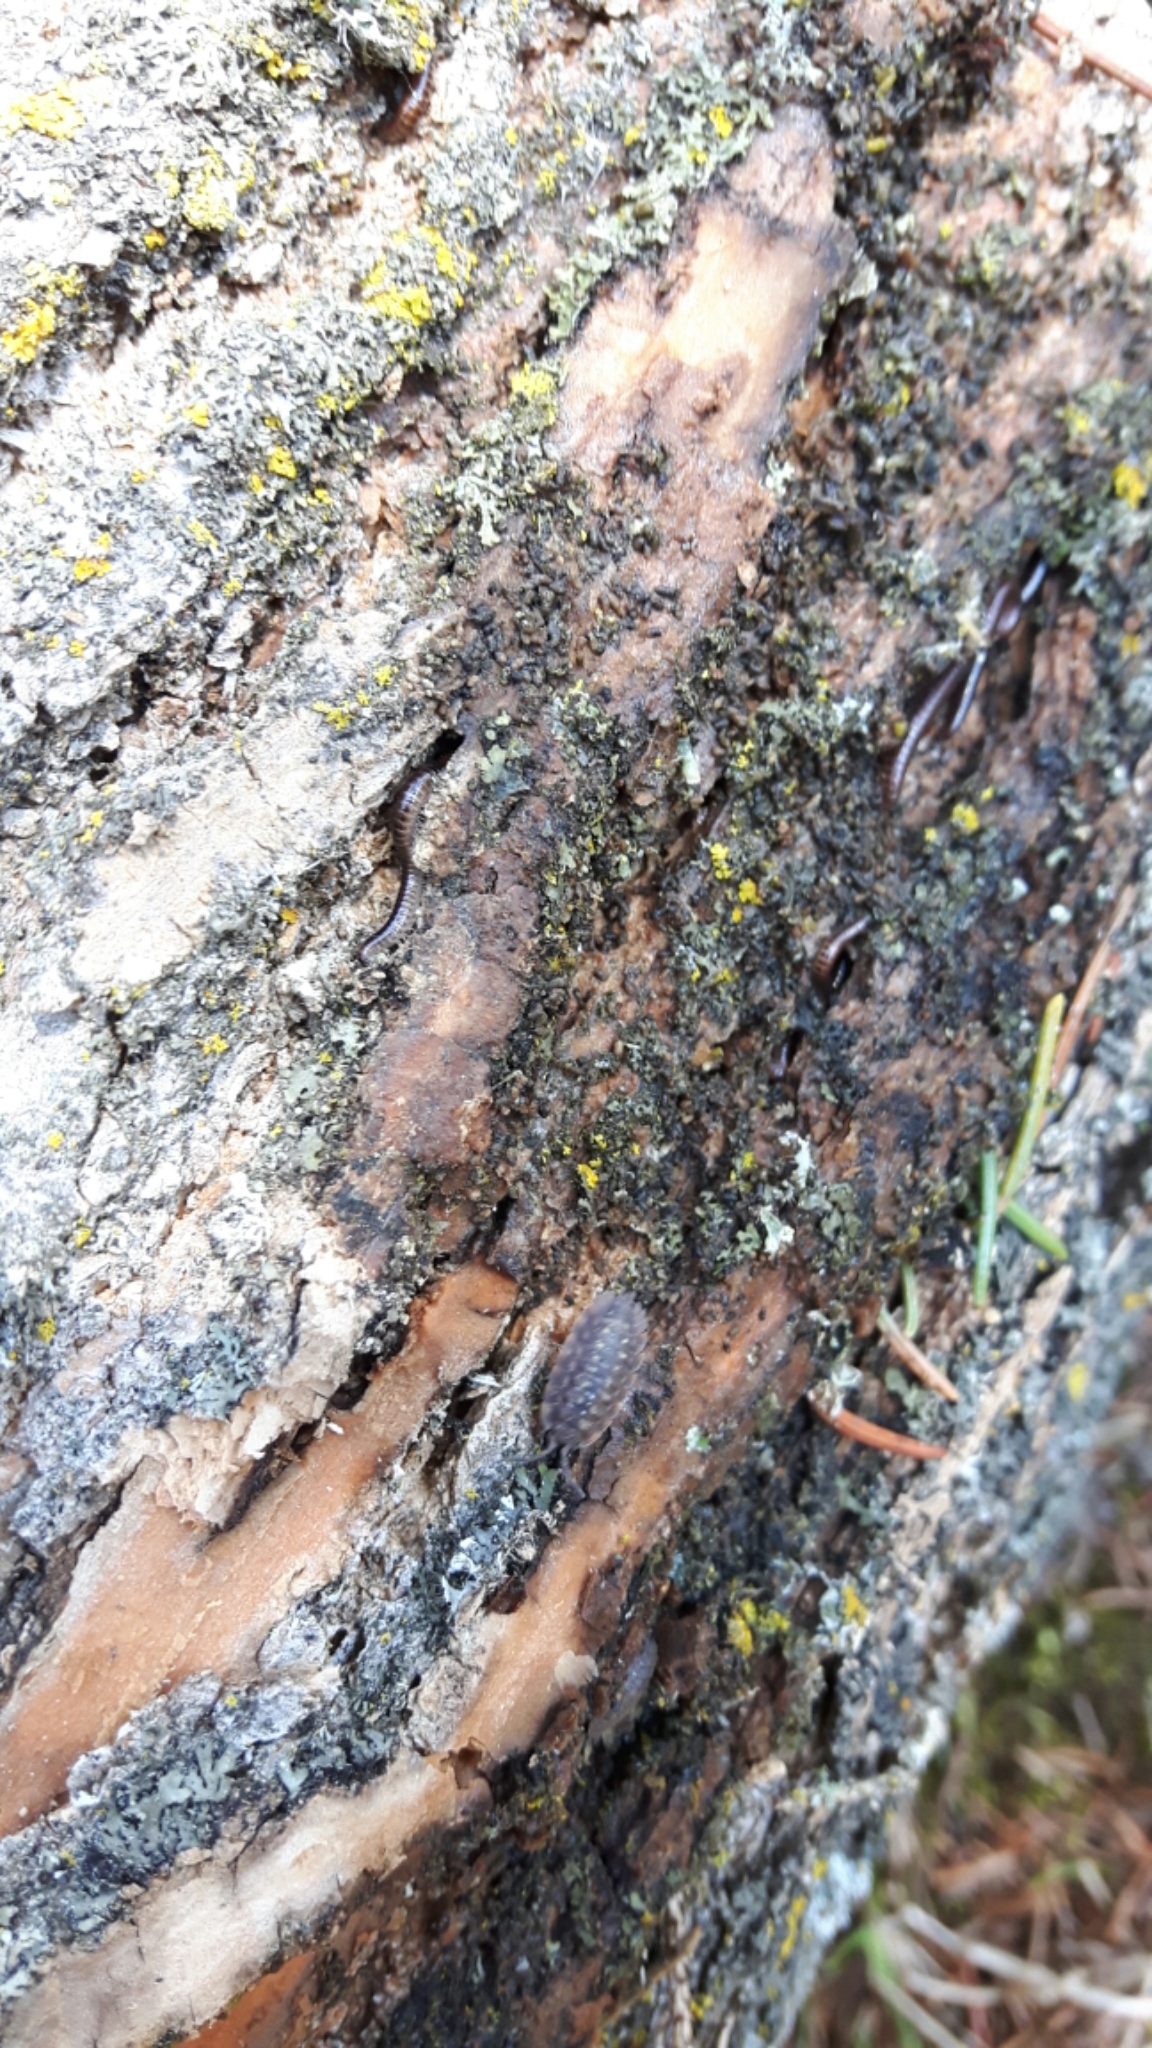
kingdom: Animalia
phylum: Arthropoda
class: Malacostraca
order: Isopoda
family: Oniscidae
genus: Oniscus
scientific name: Oniscus asellus
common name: Common shiny woodlouse
